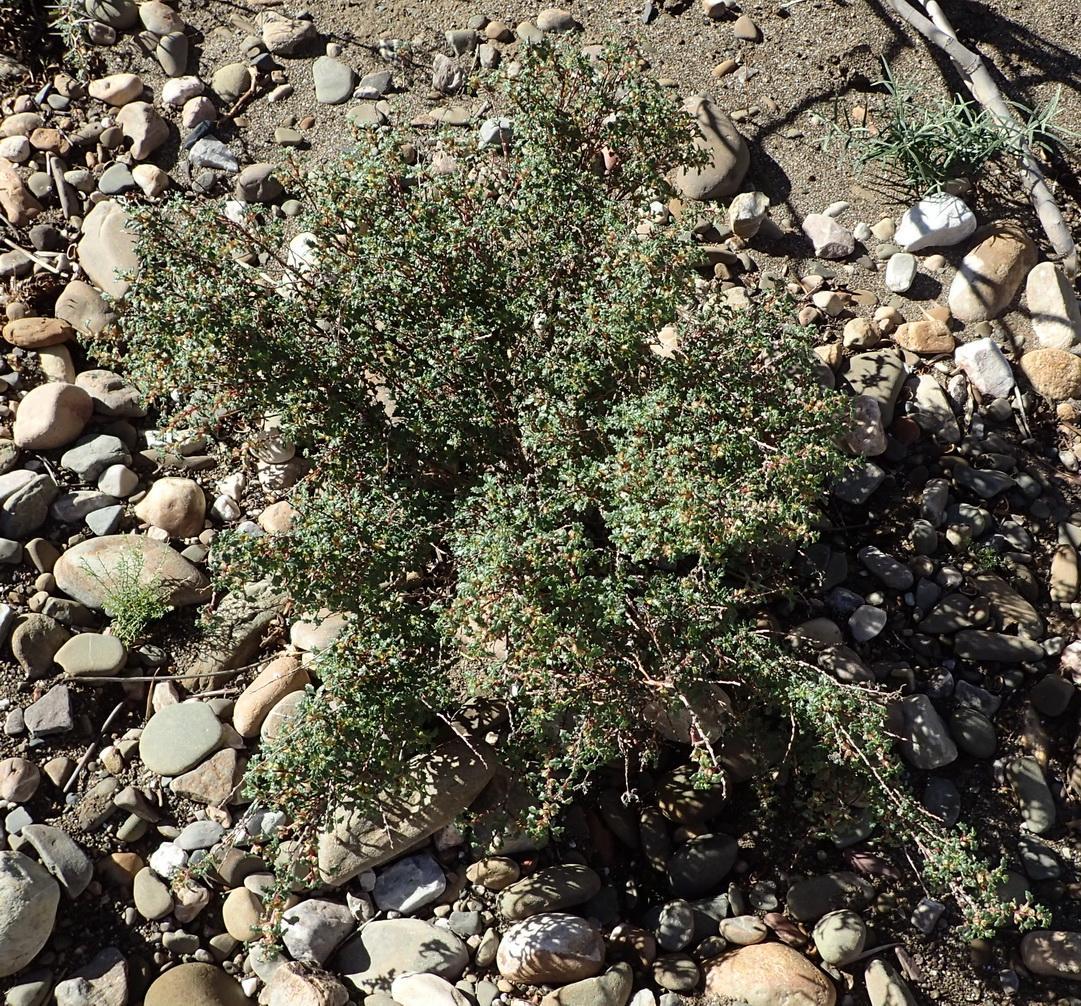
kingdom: Plantae
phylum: Tracheophyta
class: Magnoliopsida
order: Rosales
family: Urticaceae
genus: Forsskaolea
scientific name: Forsskaolea candida
